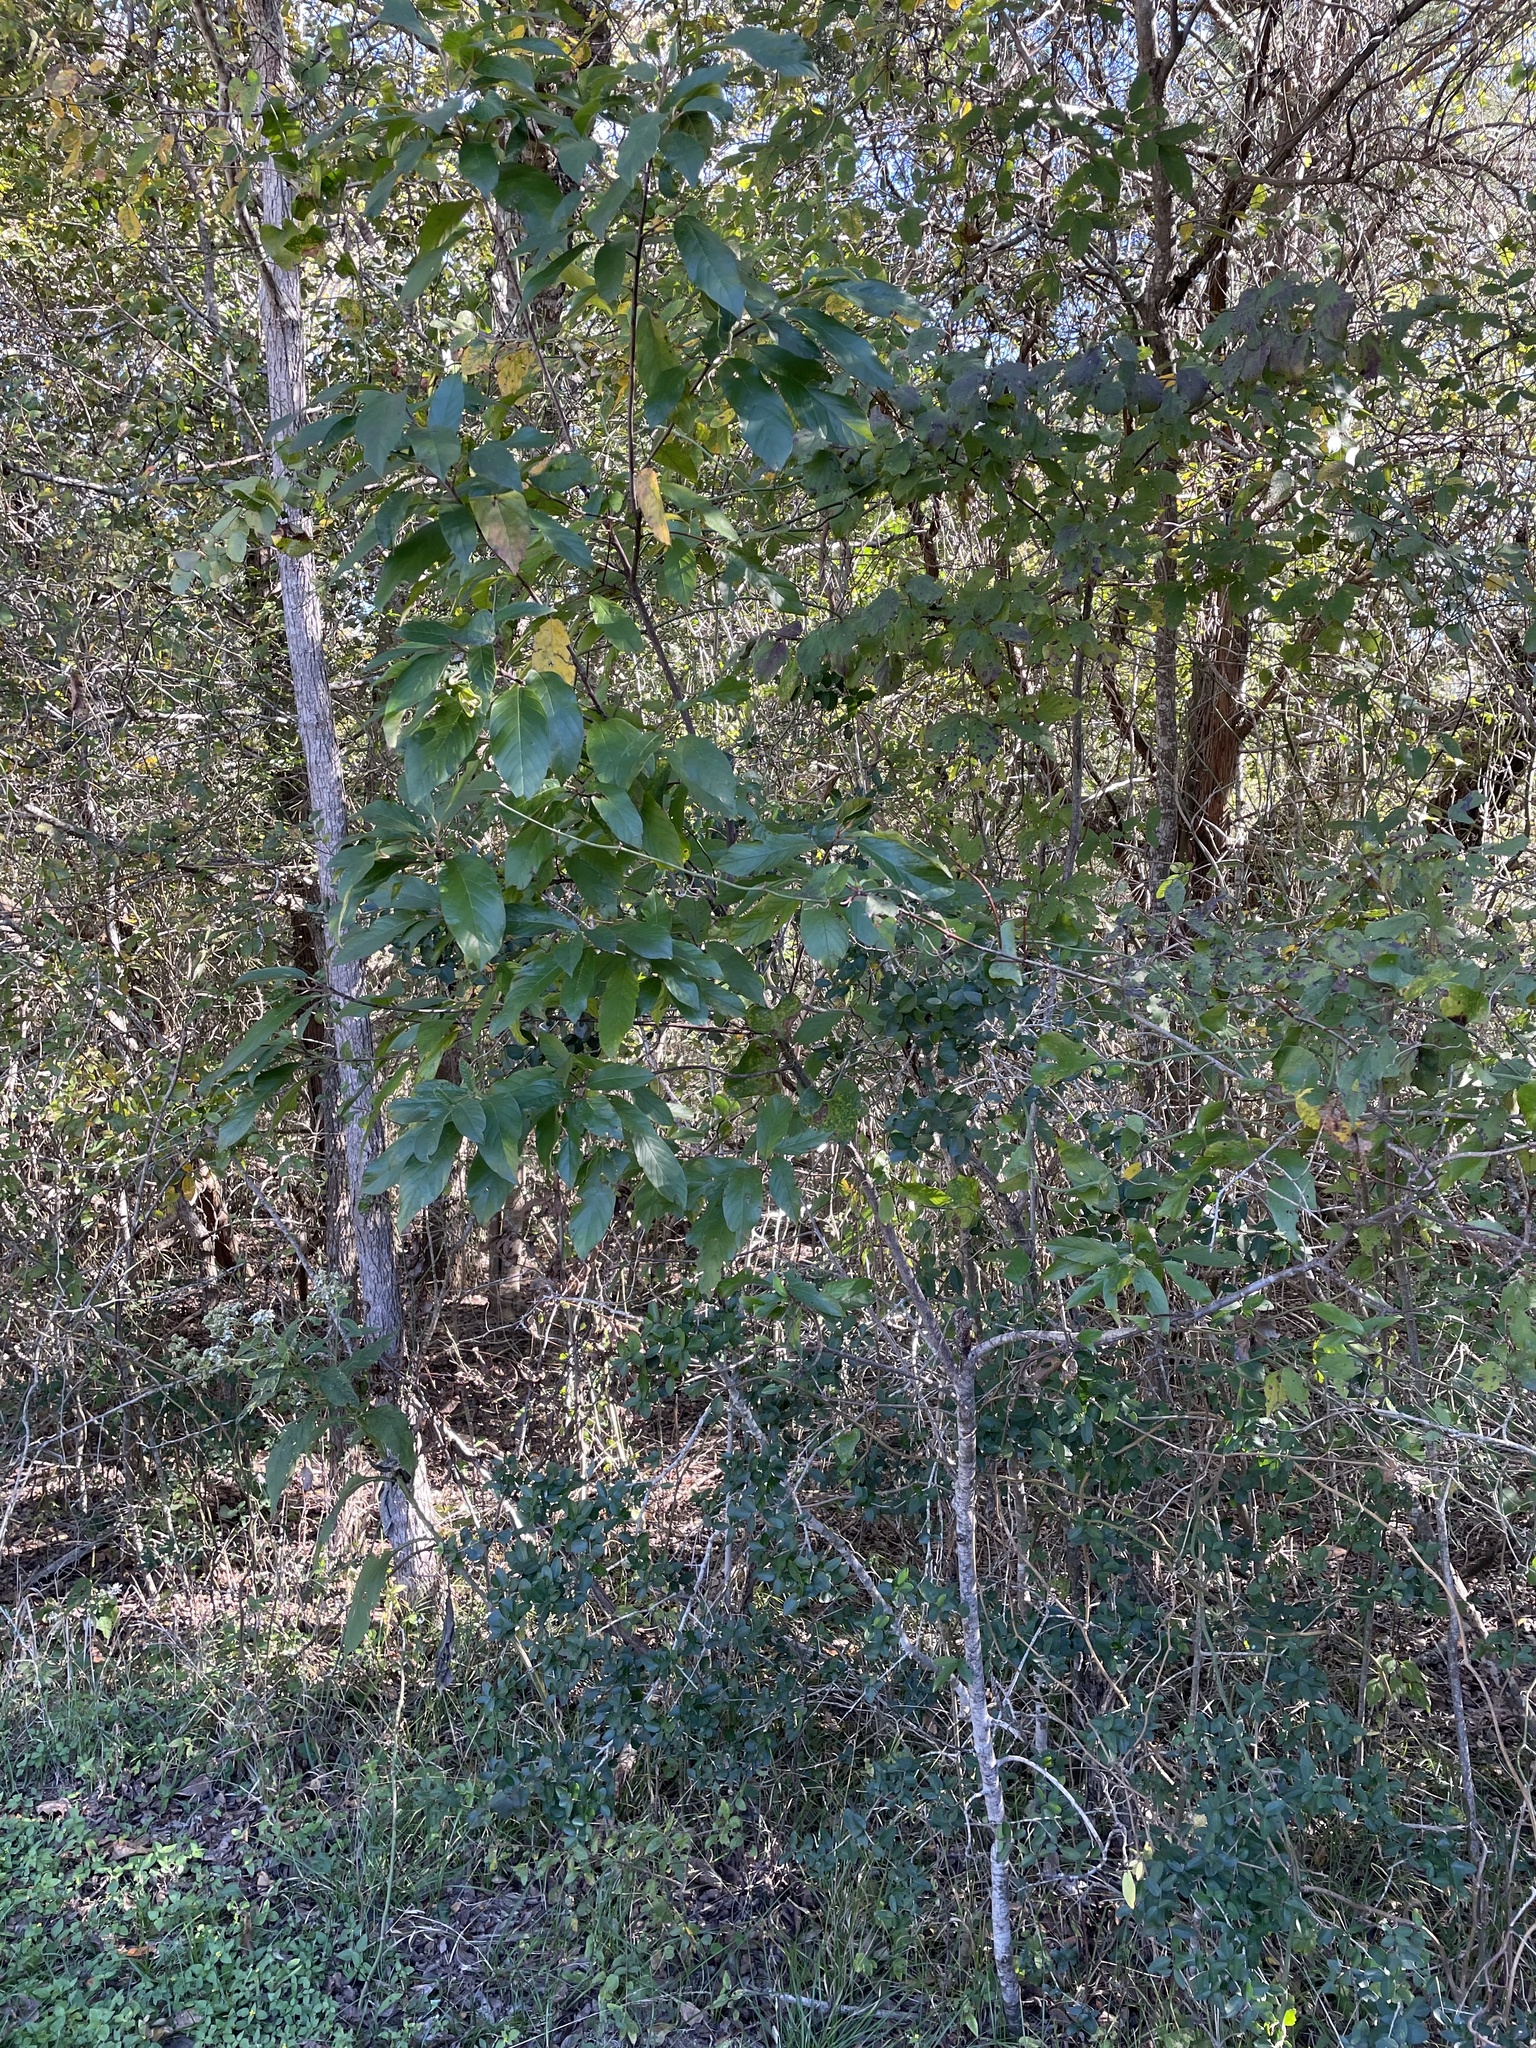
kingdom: Plantae
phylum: Tracheophyta
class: Magnoliopsida
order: Rosales
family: Rhamnaceae
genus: Frangula
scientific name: Frangula caroliniana
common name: Carolina buckthorn
